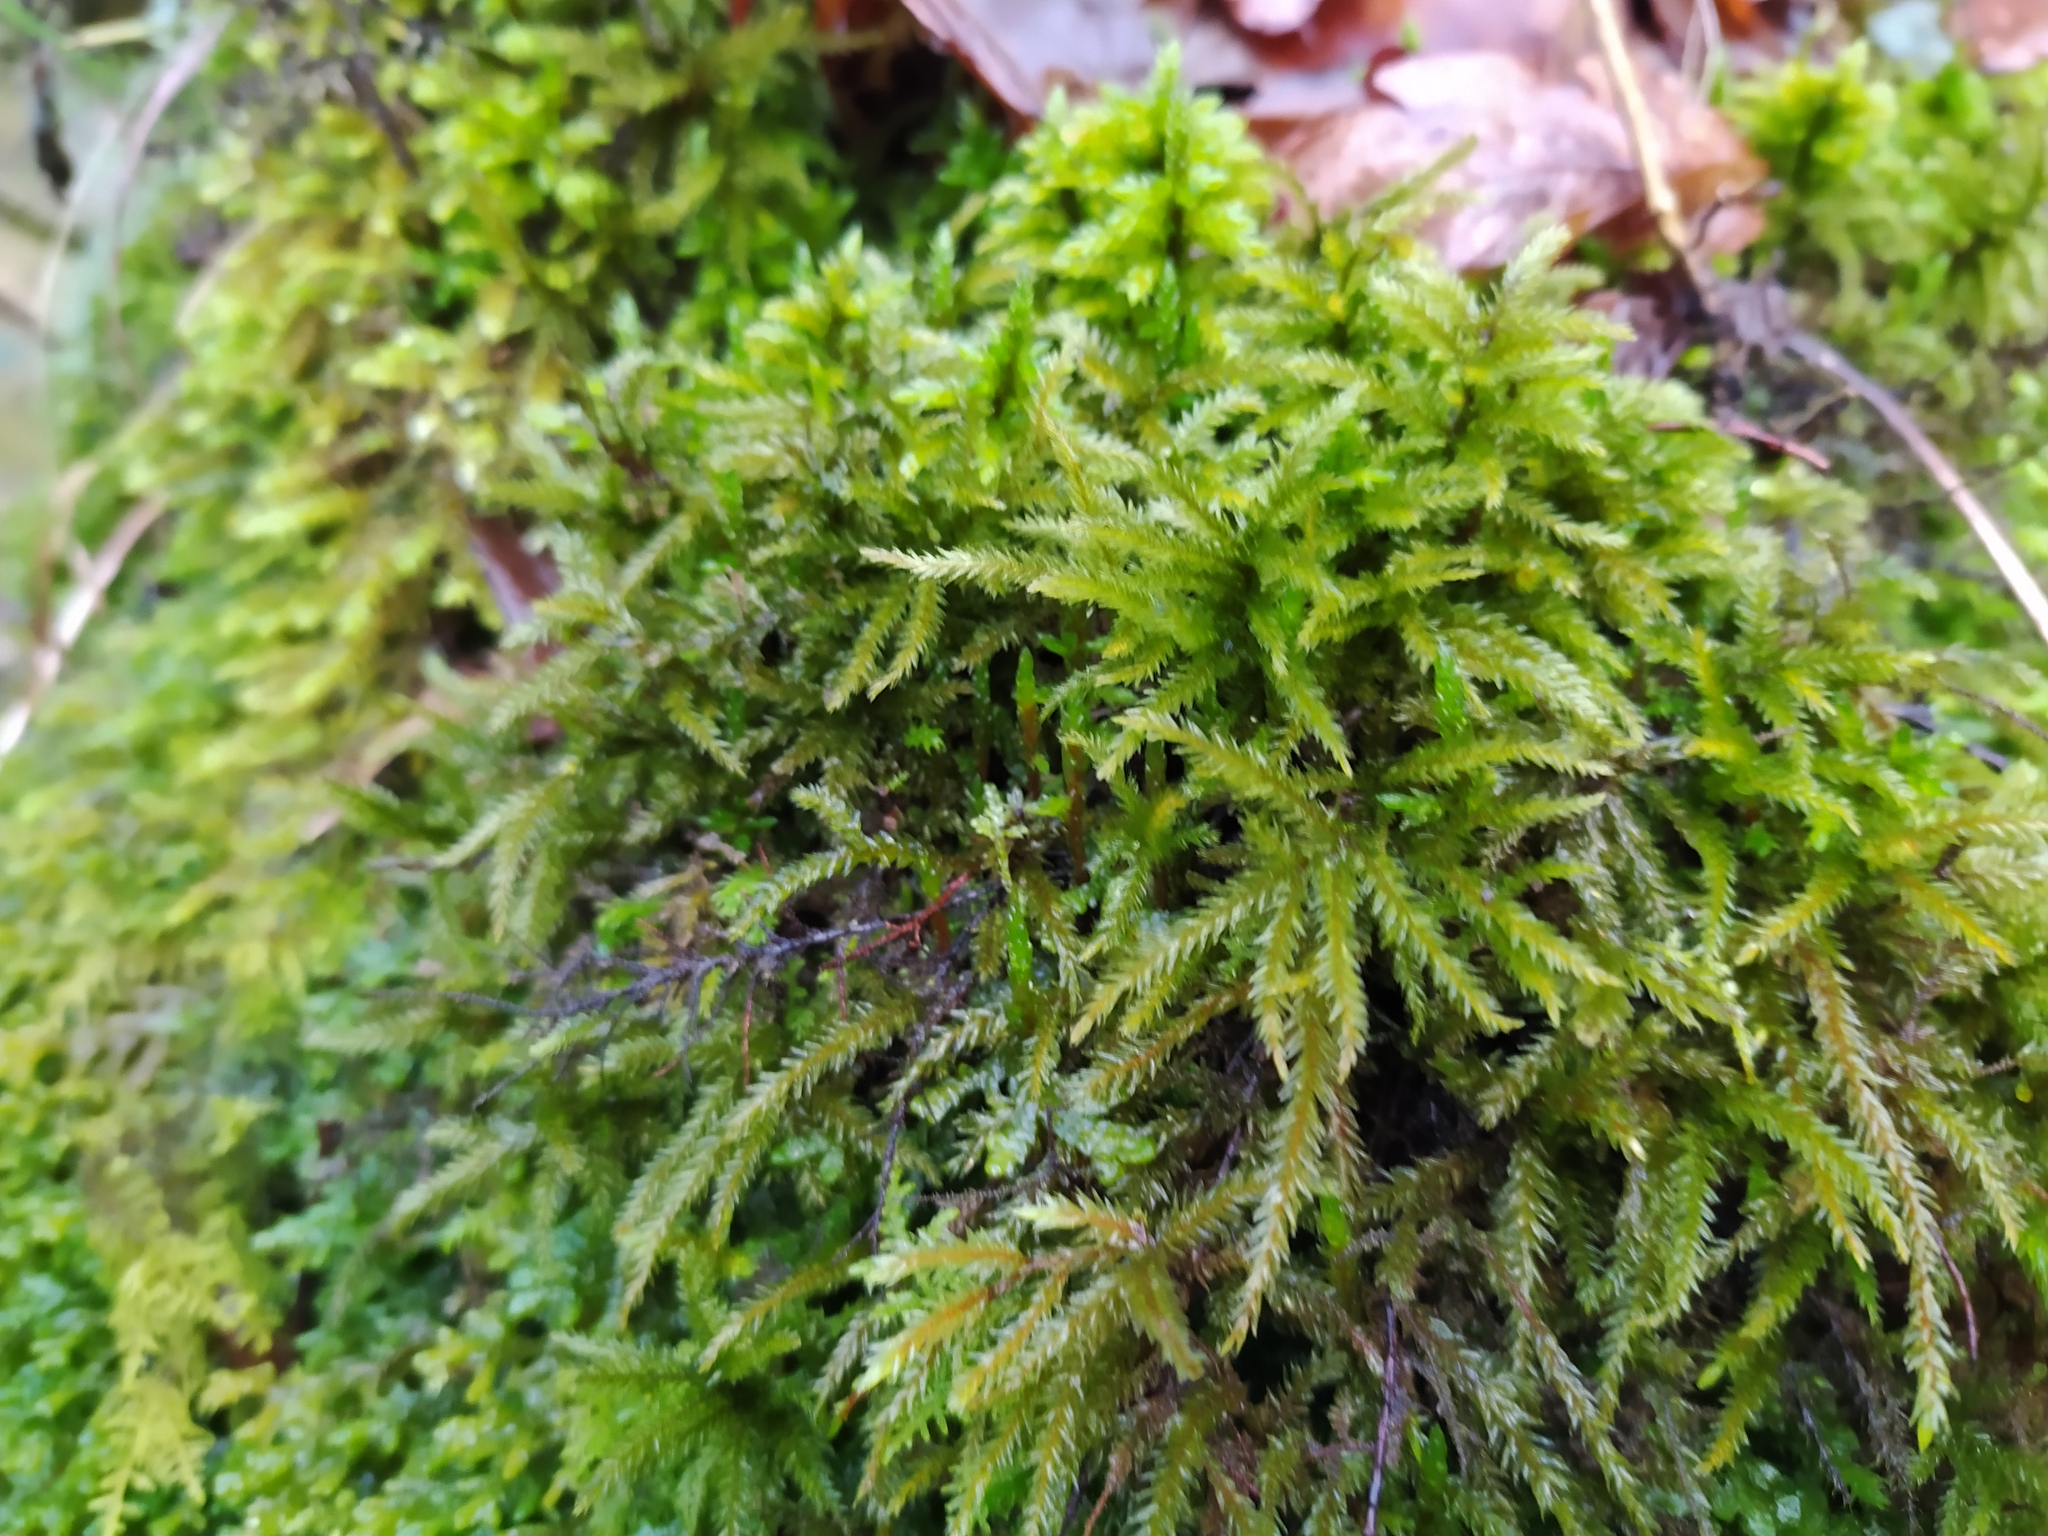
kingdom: Plantae
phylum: Bryophyta
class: Bryopsida
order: Hypnales
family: Climaciaceae
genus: Climacium
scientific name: Climacium dendroides
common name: Northern tree moss
